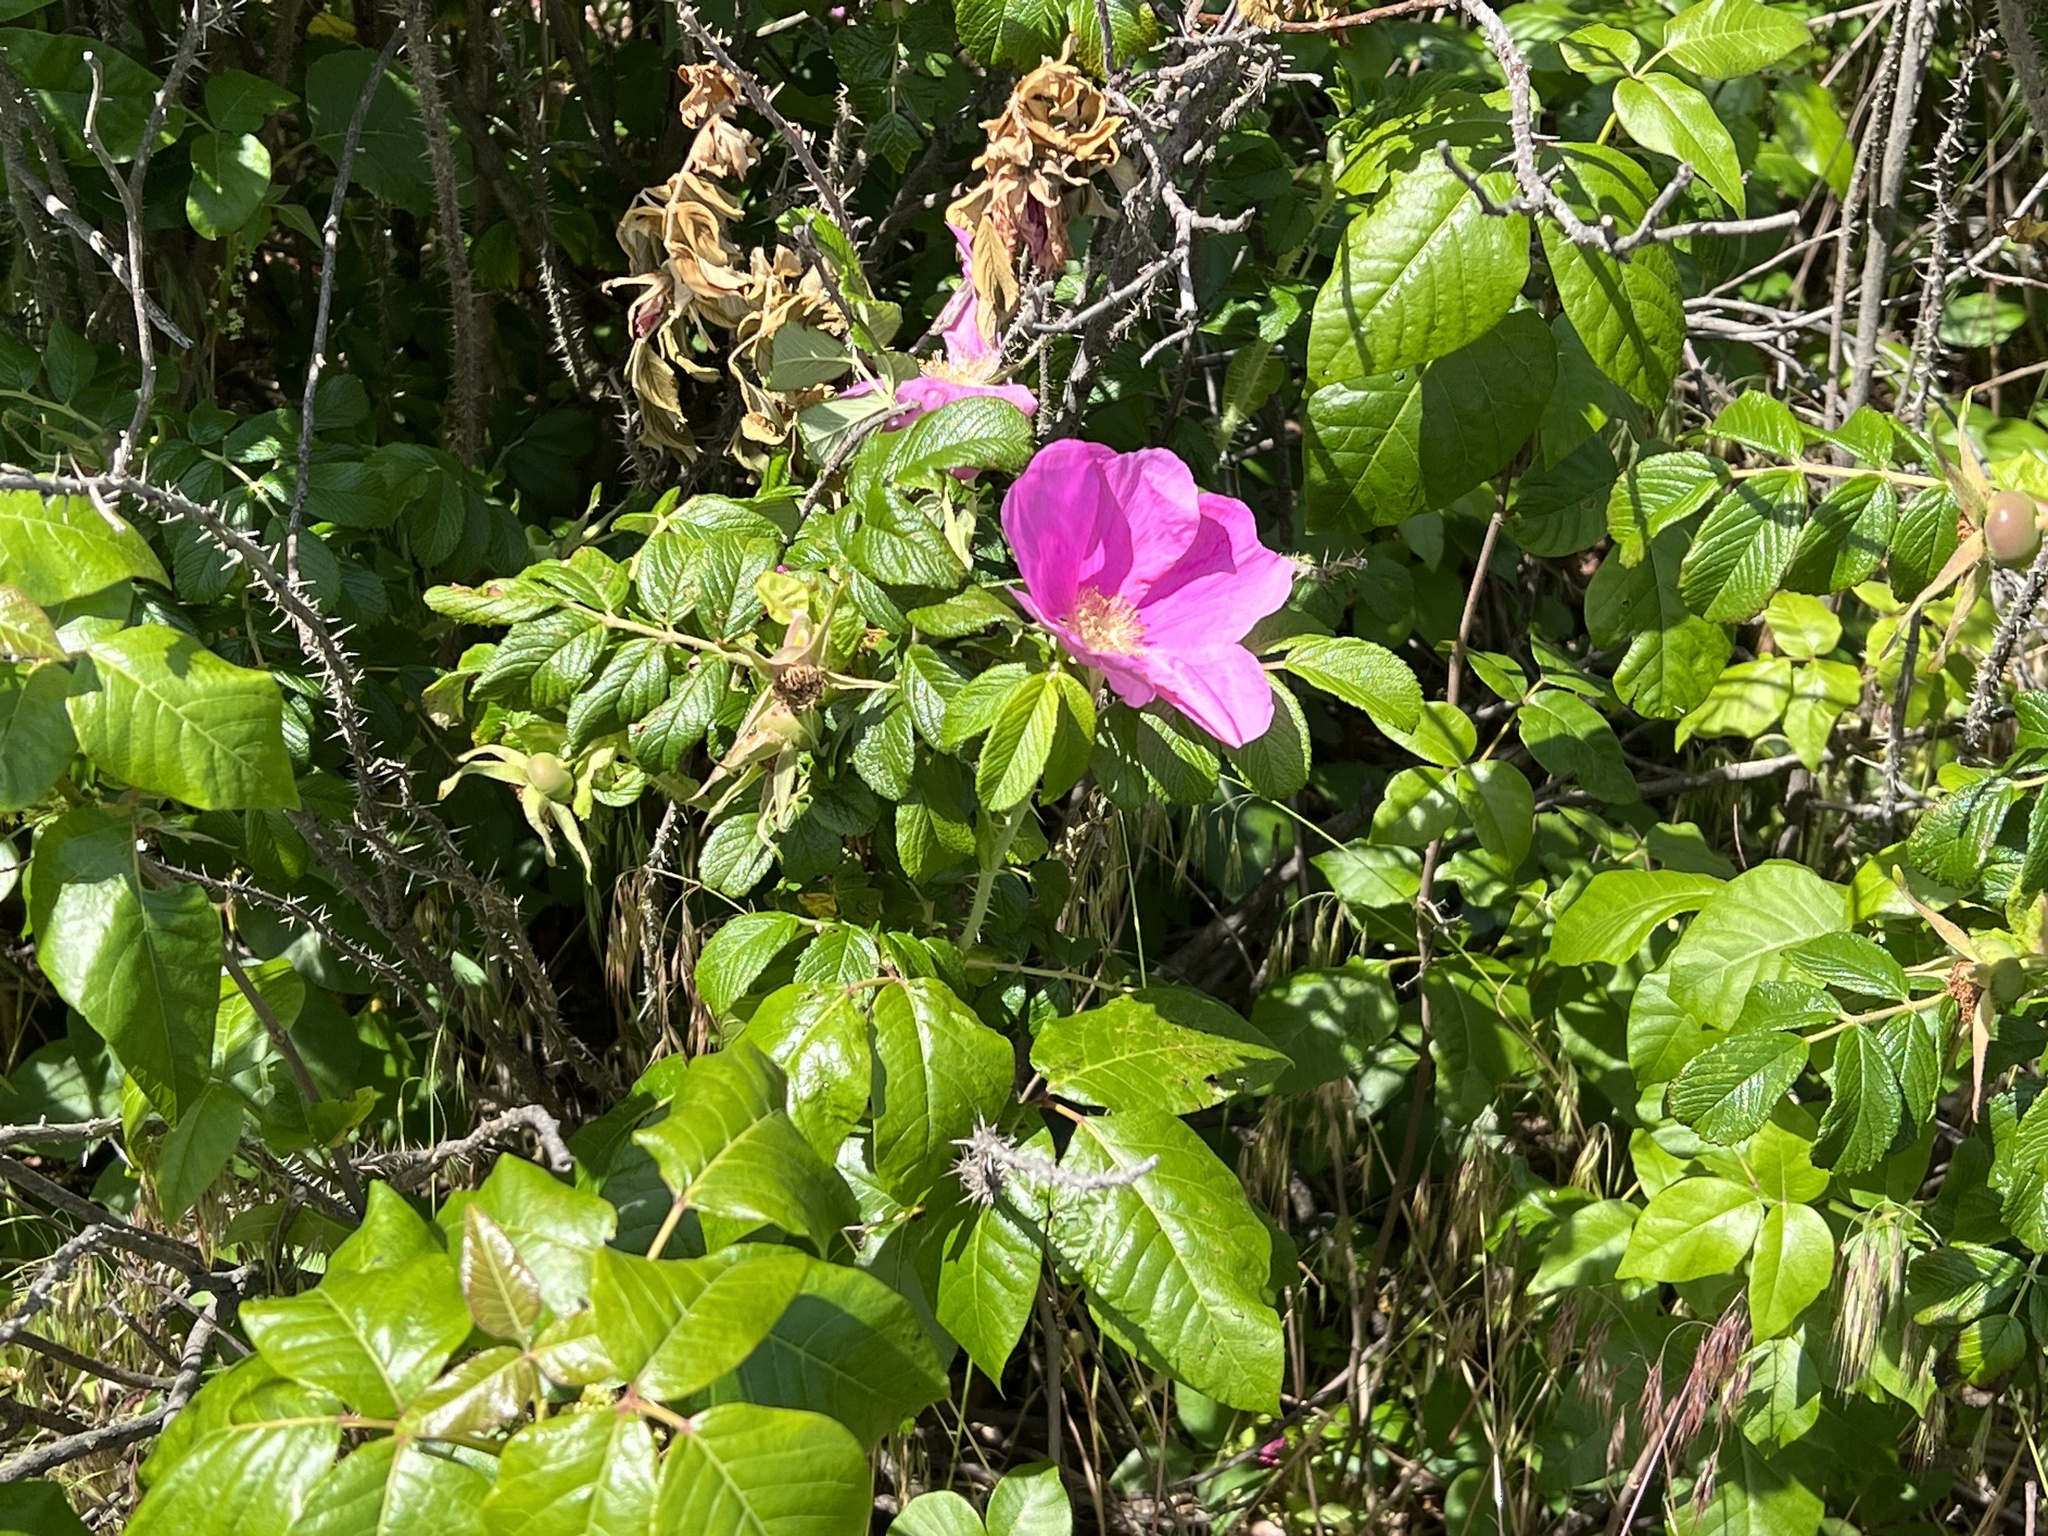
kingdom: Plantae
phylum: Tracheophyta
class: Magnoliopsida
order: Rosales
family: Rosaceae
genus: Rosa
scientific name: Rosa rugosa
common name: Japanese rose
